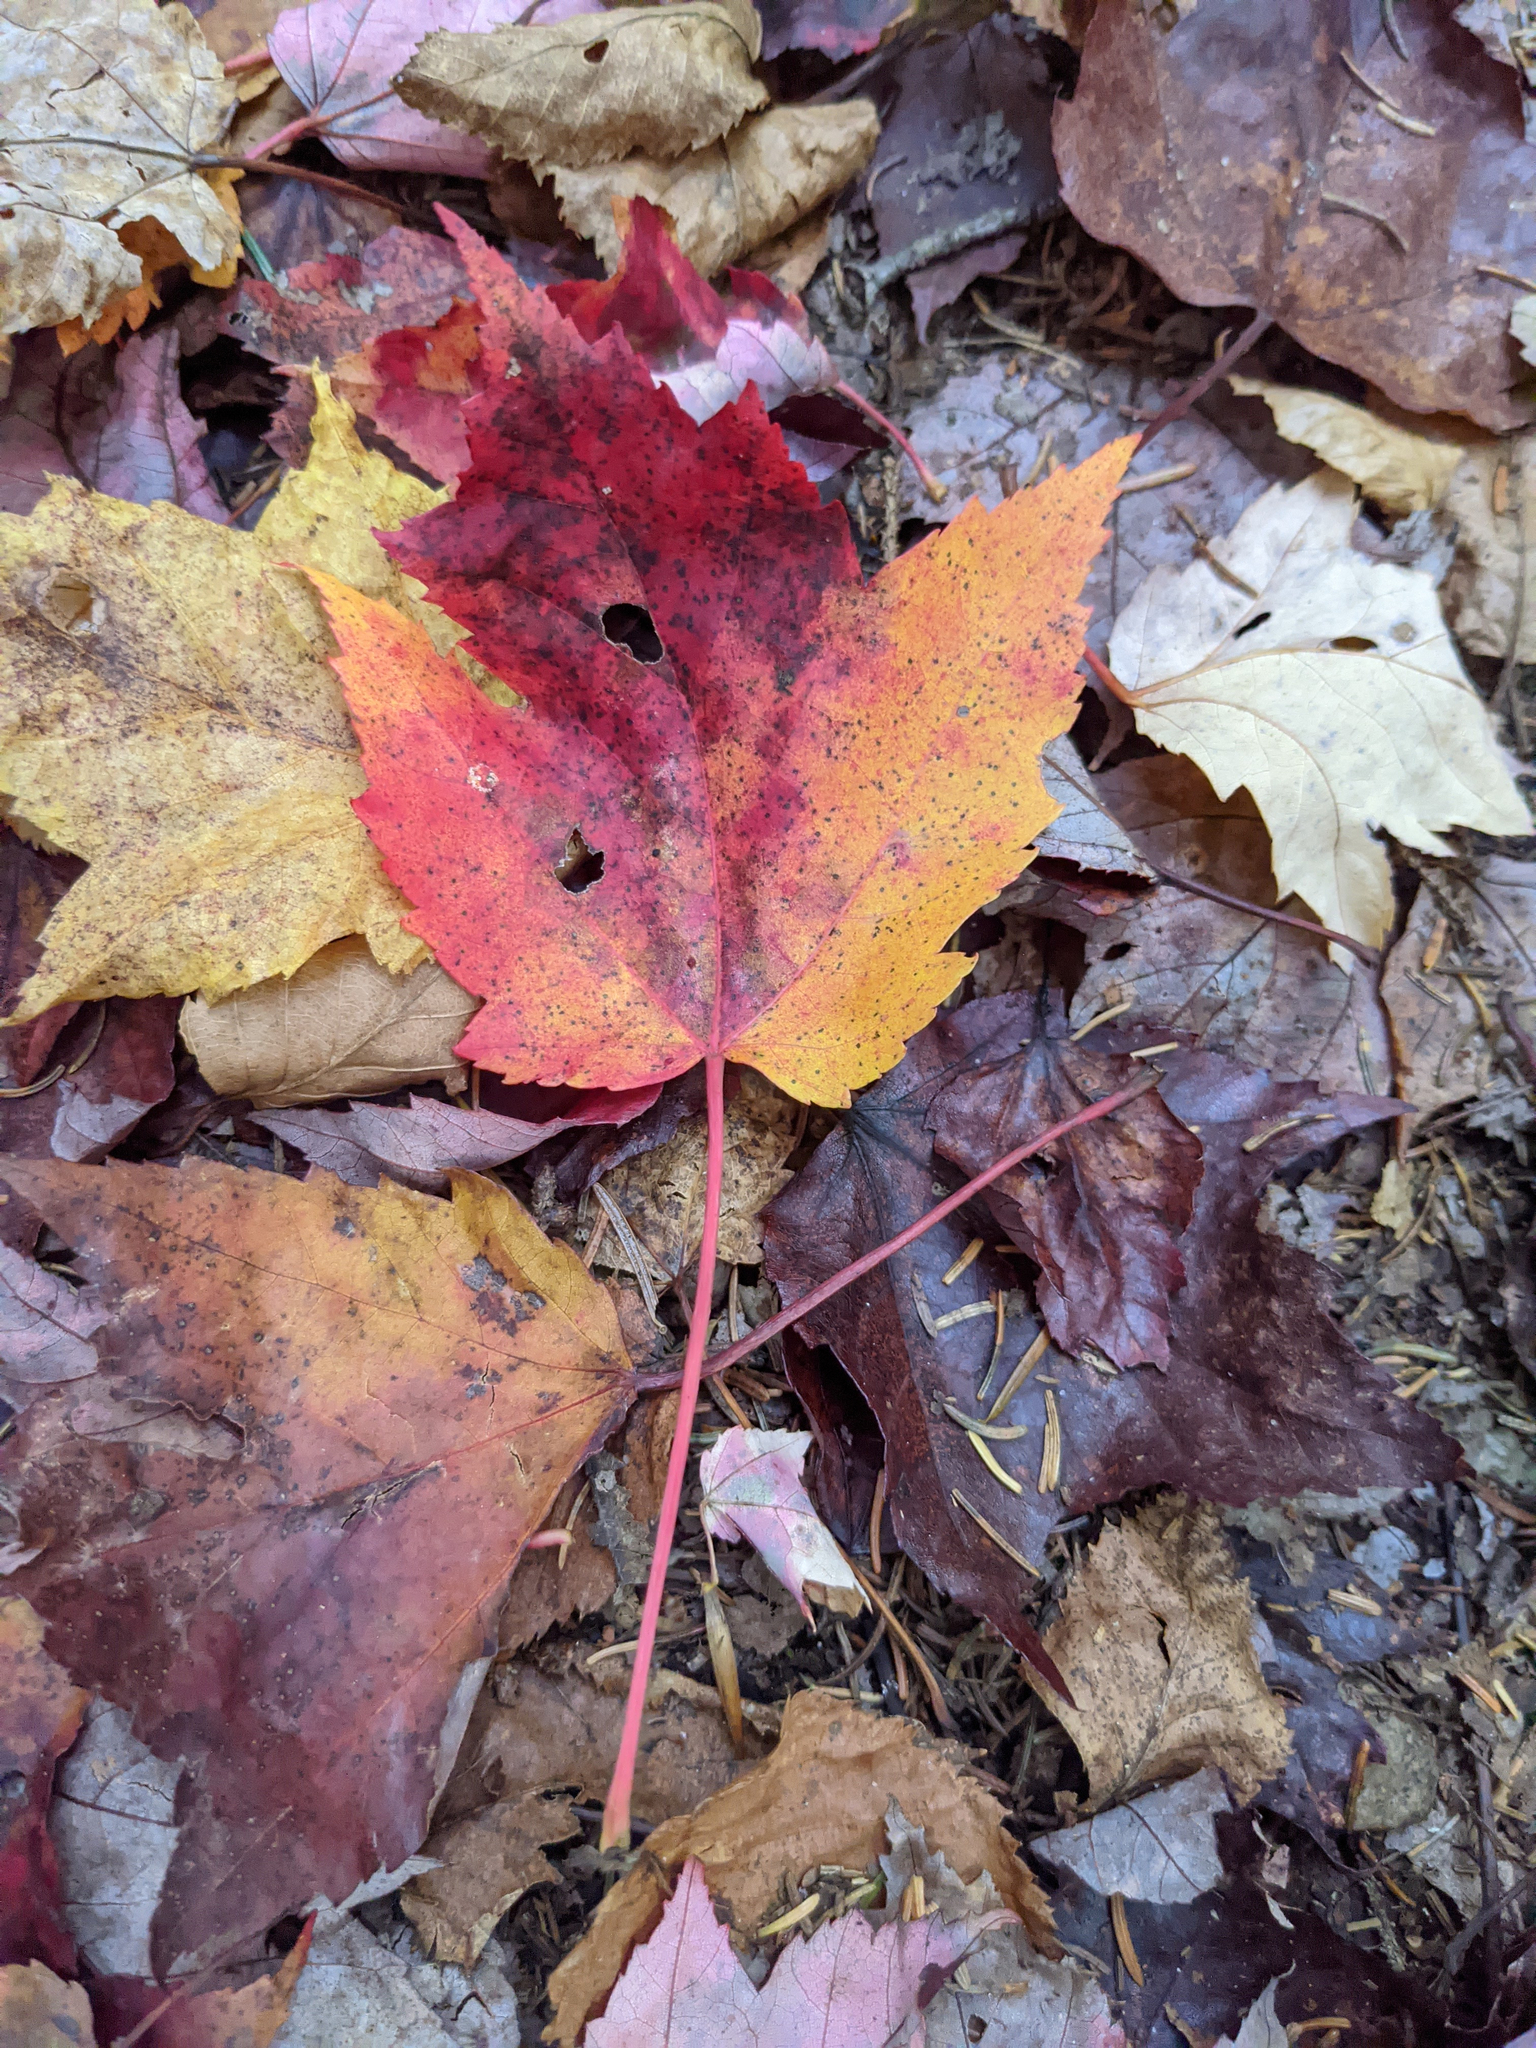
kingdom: Plantae
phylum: Tracheophyta
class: Magnoliopsida
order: Sapindales
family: Sapindaceae
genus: Acer
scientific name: Acer rubrum
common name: Red maple
